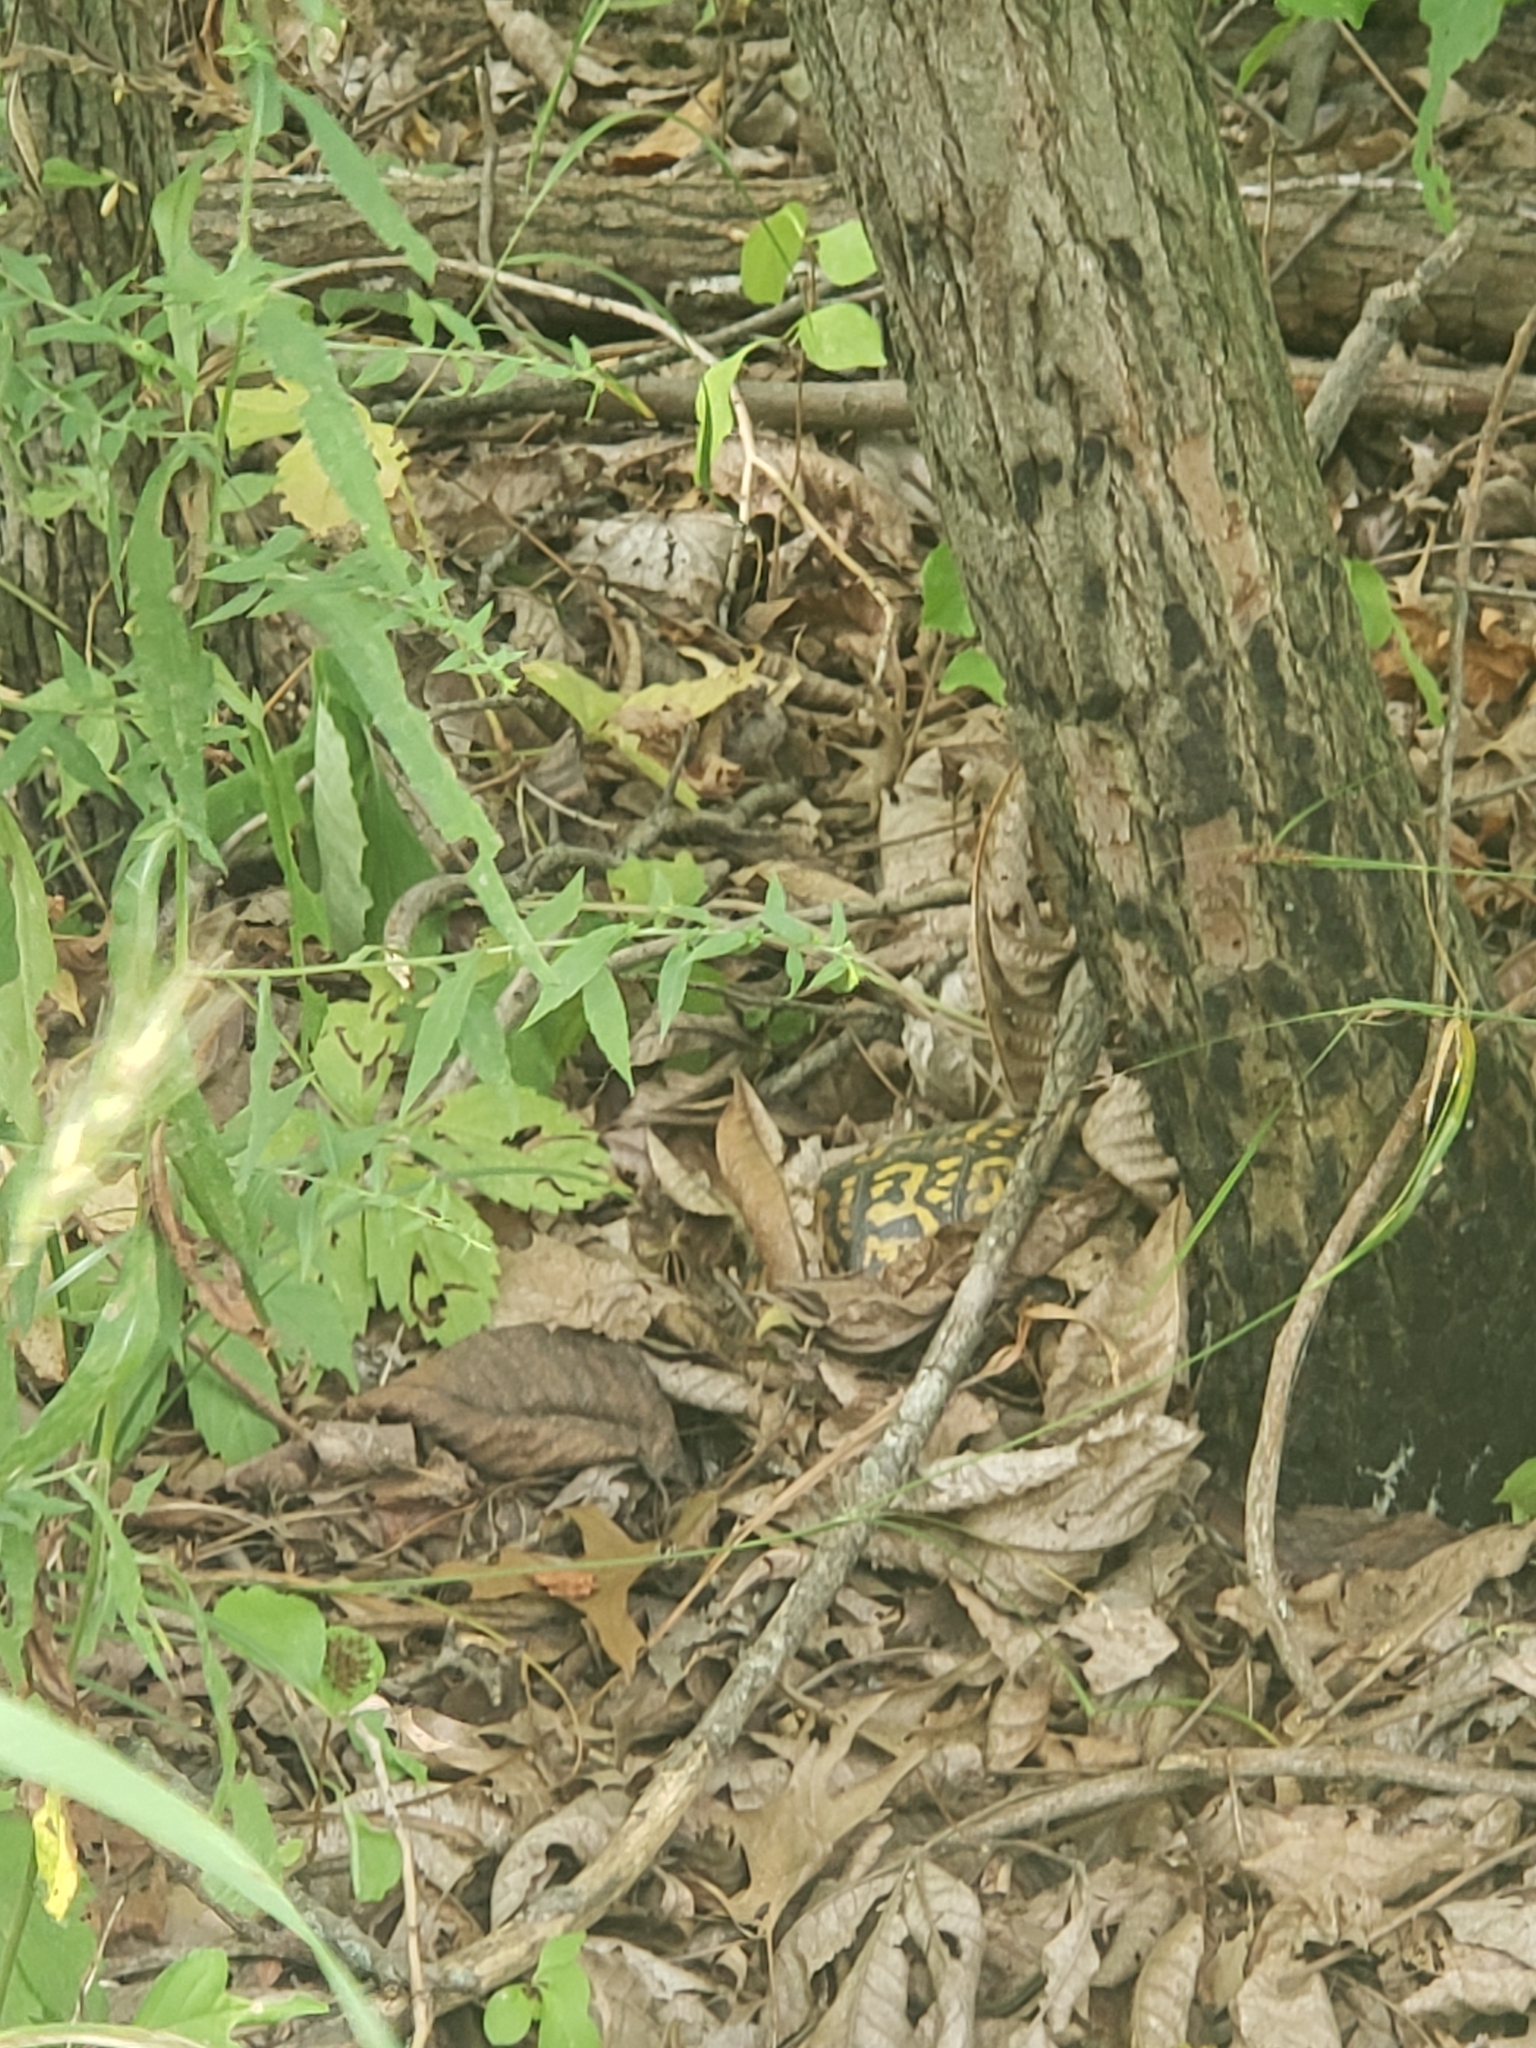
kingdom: Animalia
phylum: Chordata
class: Testudines
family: Emydidae
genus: Terrapene
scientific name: Terrapene carolina
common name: Common box turtle
